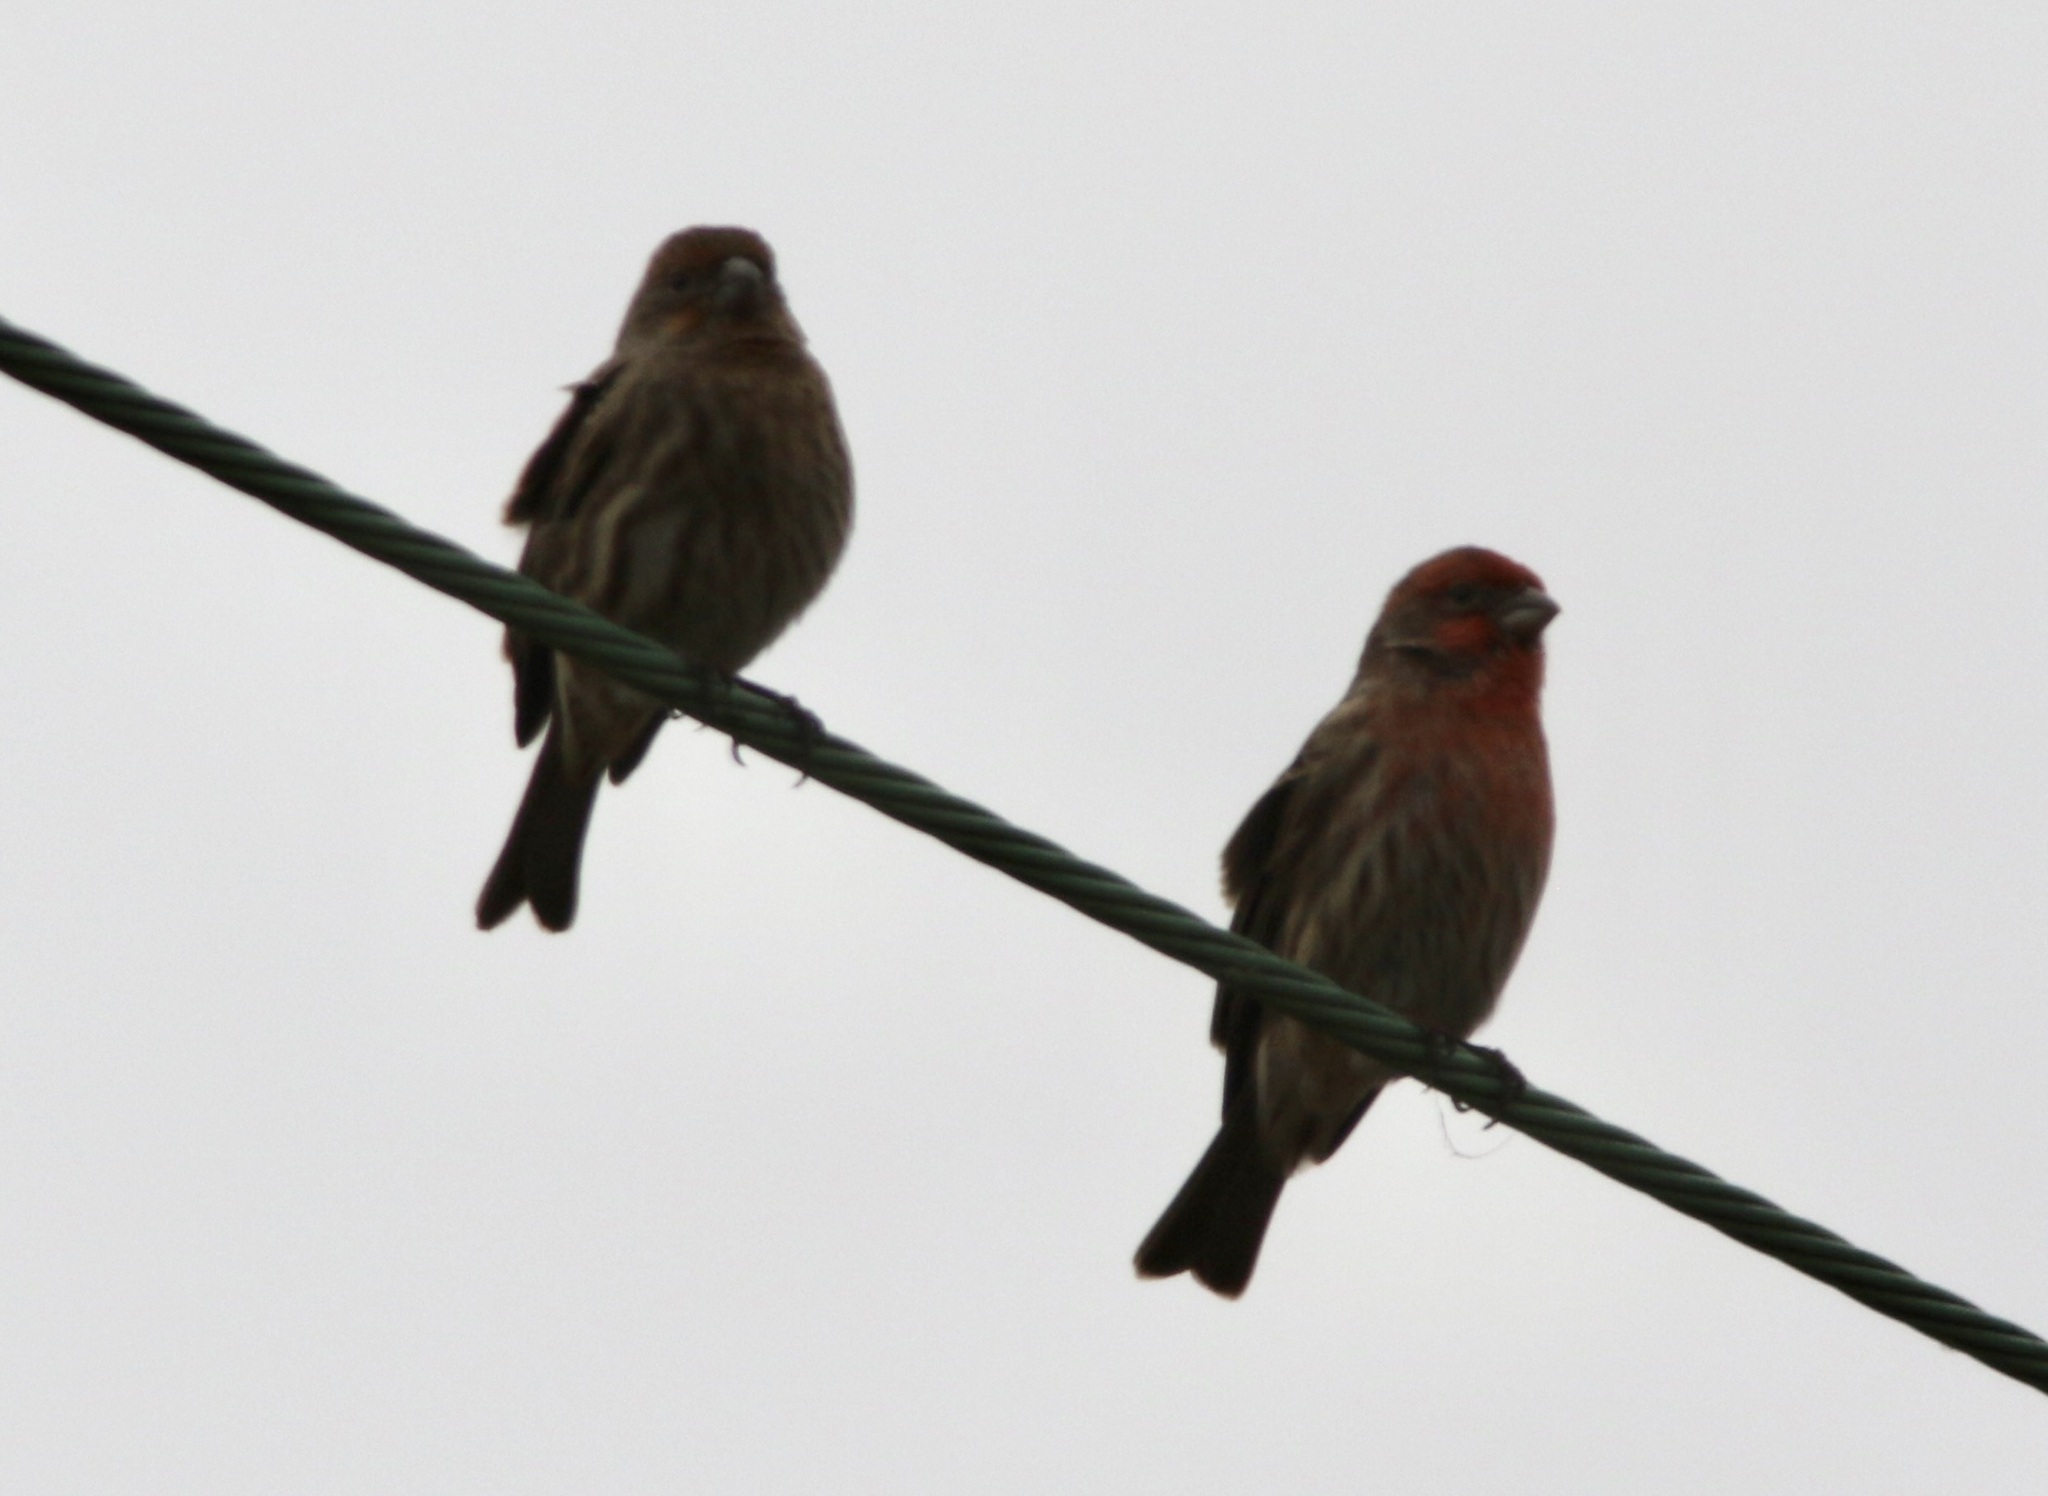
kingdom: Animalia
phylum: Chordata
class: Aves
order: Passeriformes
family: Fringillidae
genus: Haemorhous
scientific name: Haemorhous mexicanus
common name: House finch
